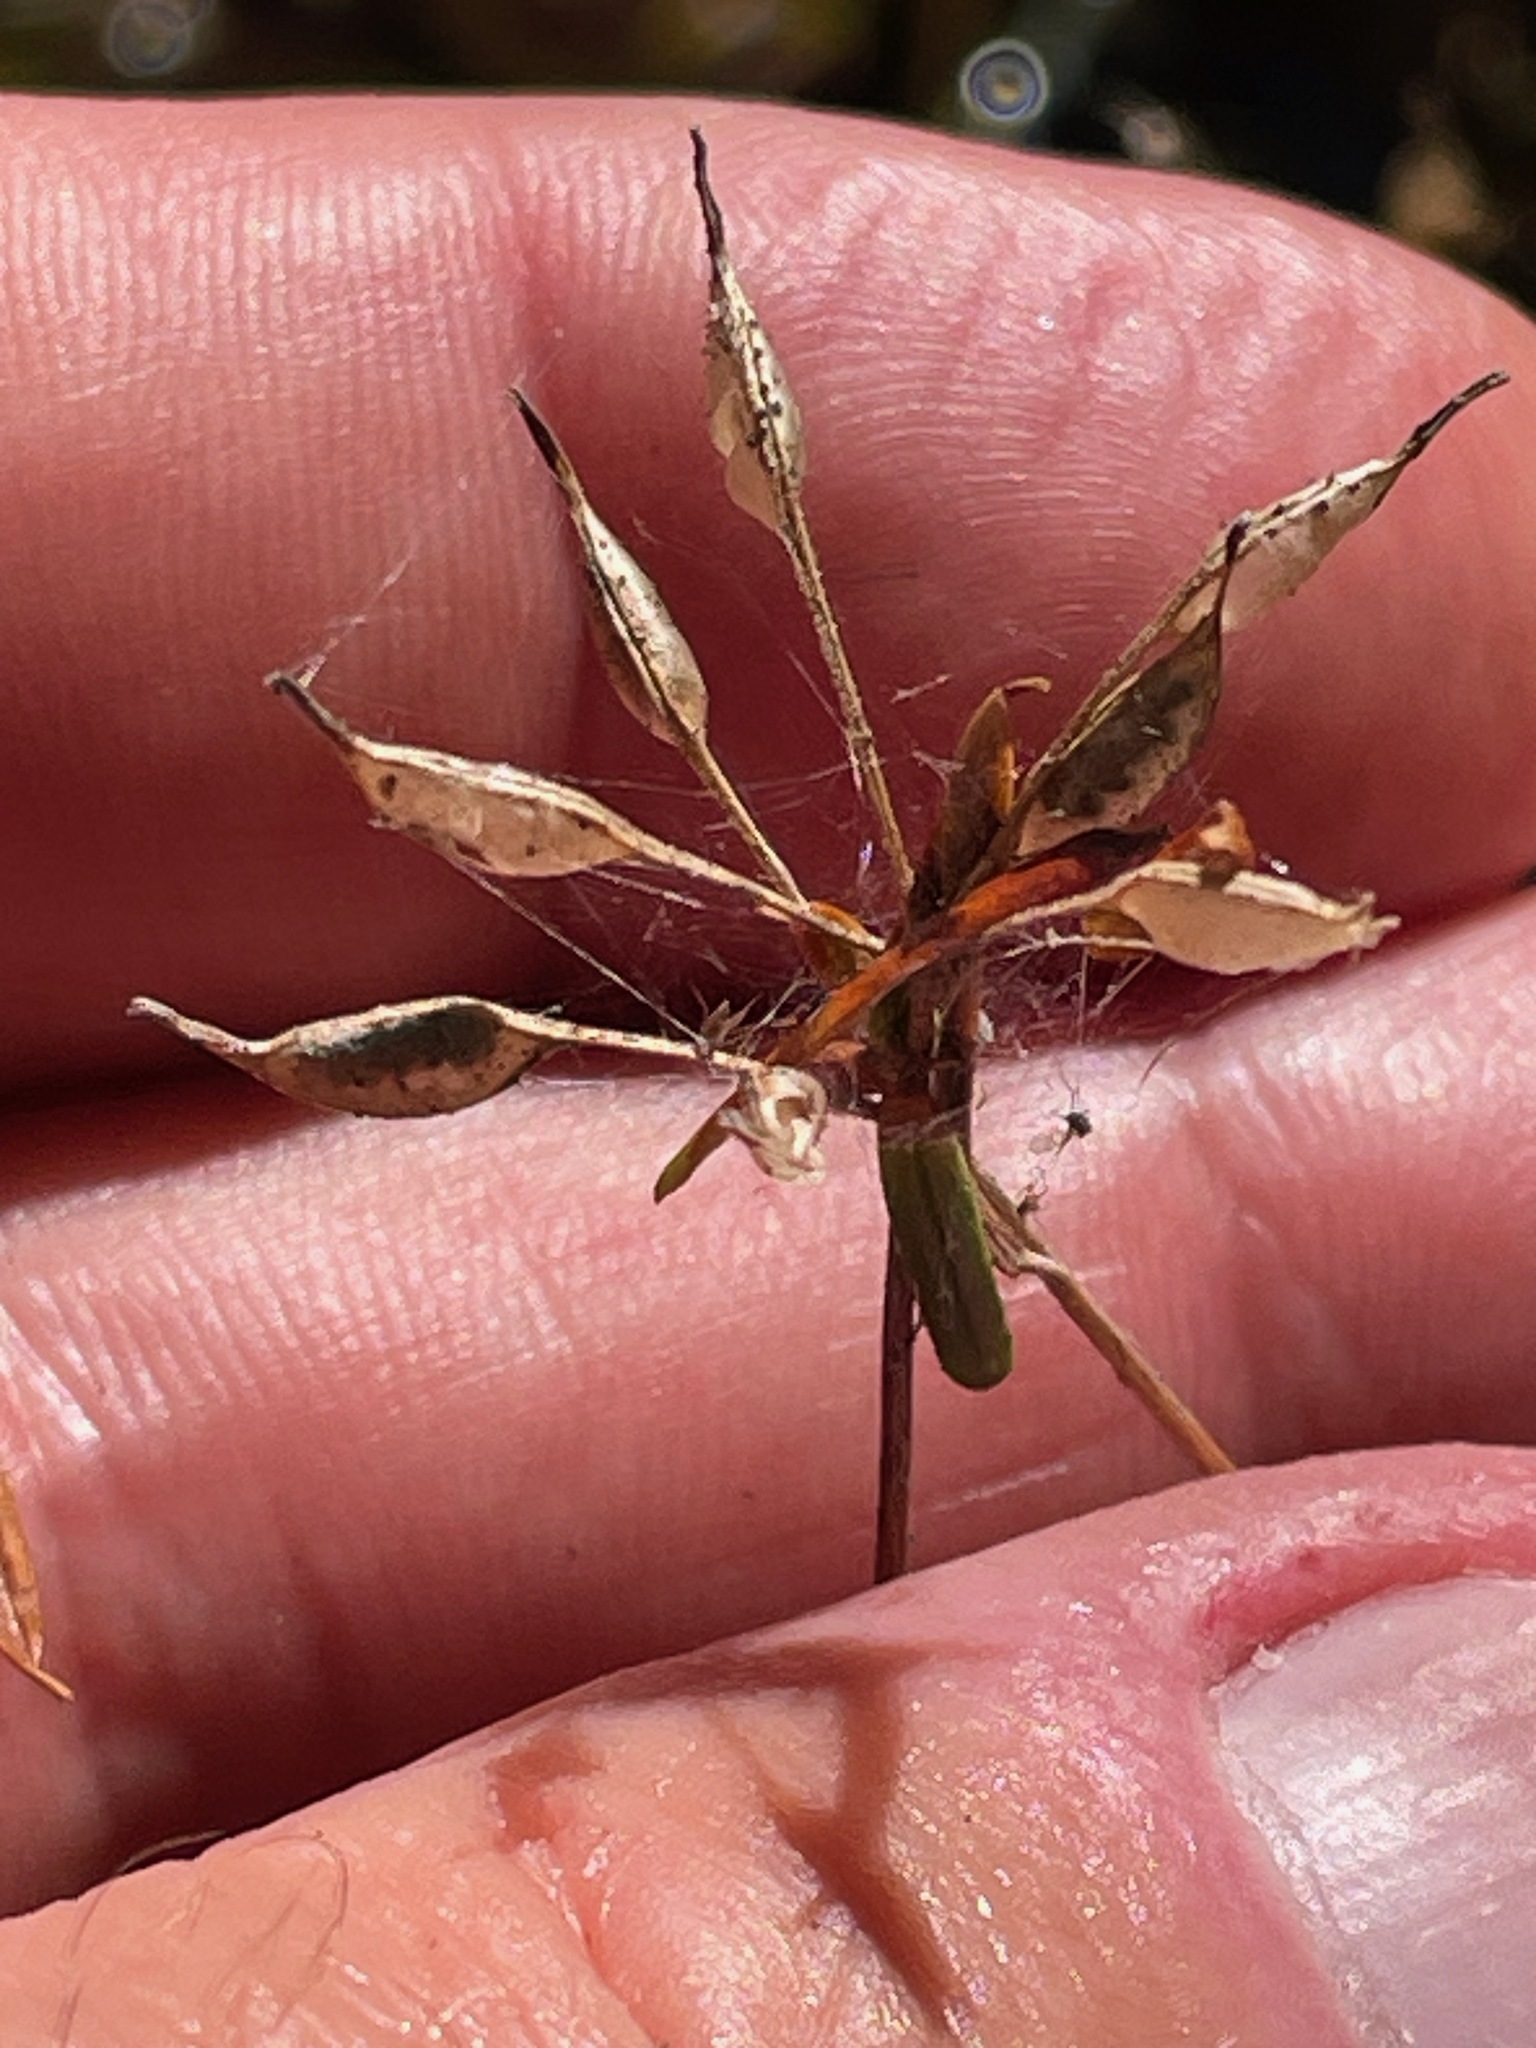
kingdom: Plantae
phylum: Tracheophyta
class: Magnoliopsida
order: Ranunculales
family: Ranunculaceae
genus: Coptis
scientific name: Coptis trifolia
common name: Canker-root
